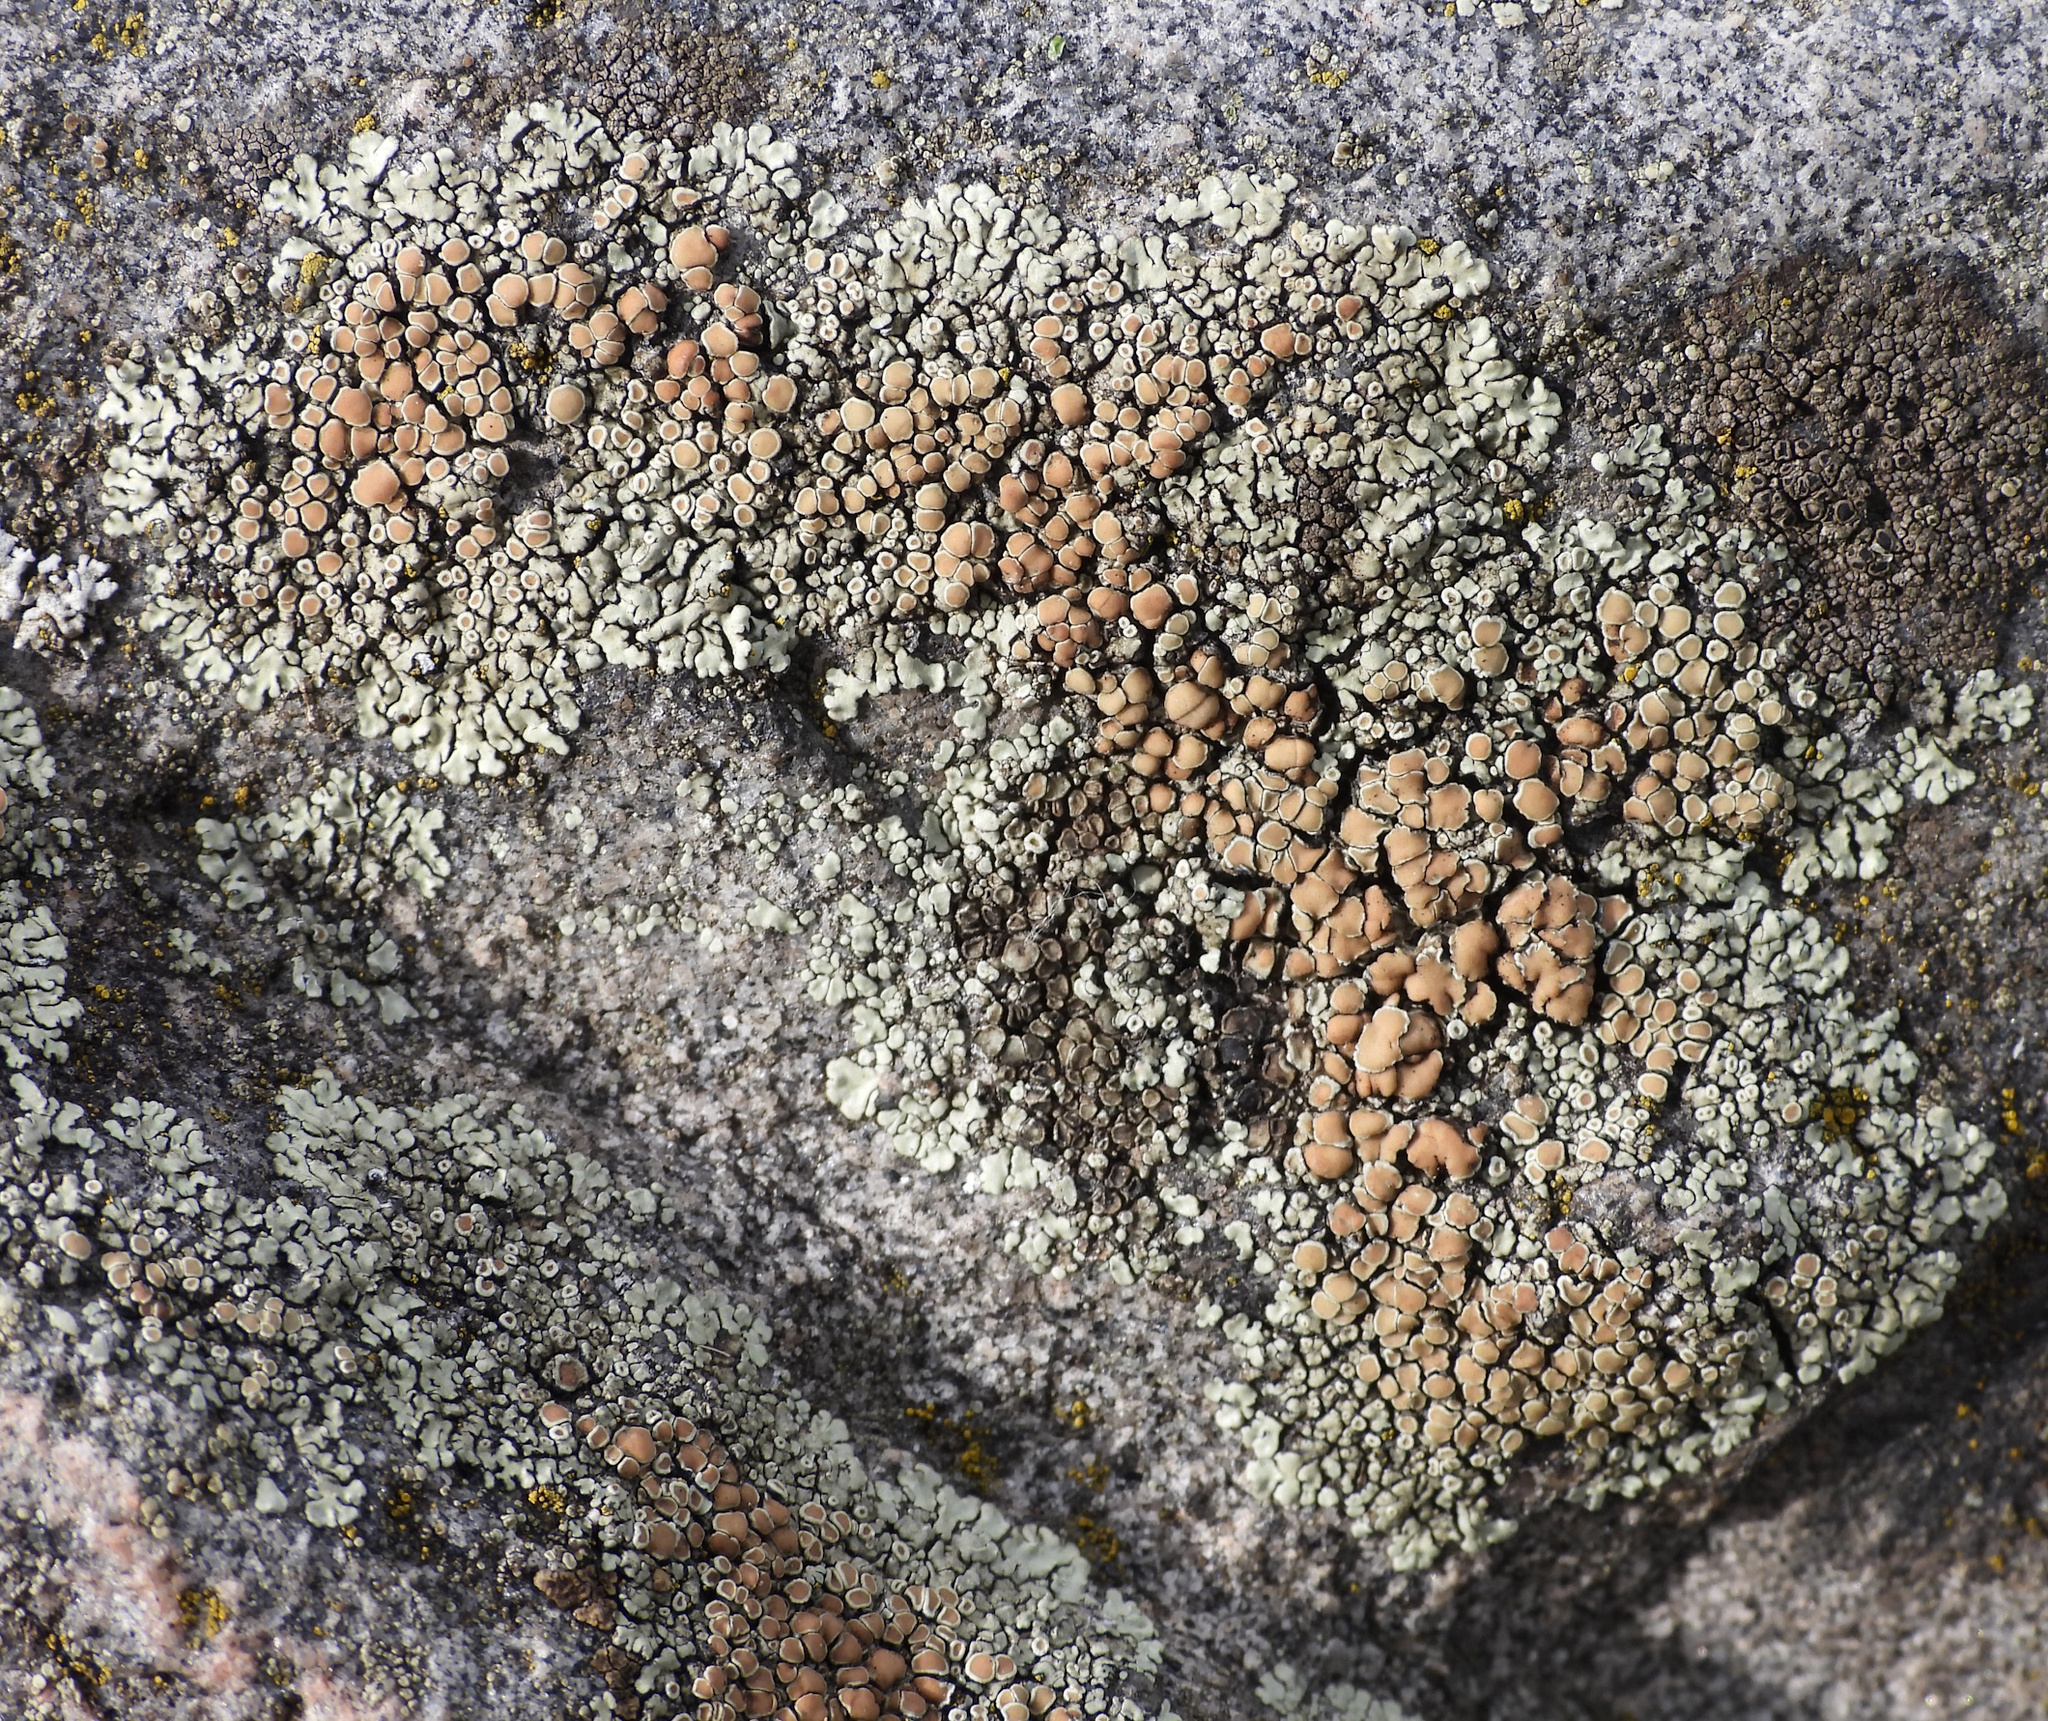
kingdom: Fungi
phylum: Ascomycota
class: Lecanoromycetes
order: Lecanorales
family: Lecanoraceae
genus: Protoparmeliopsis
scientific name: Protoparmeliopsis muralis
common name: Stonewall rim lichen
